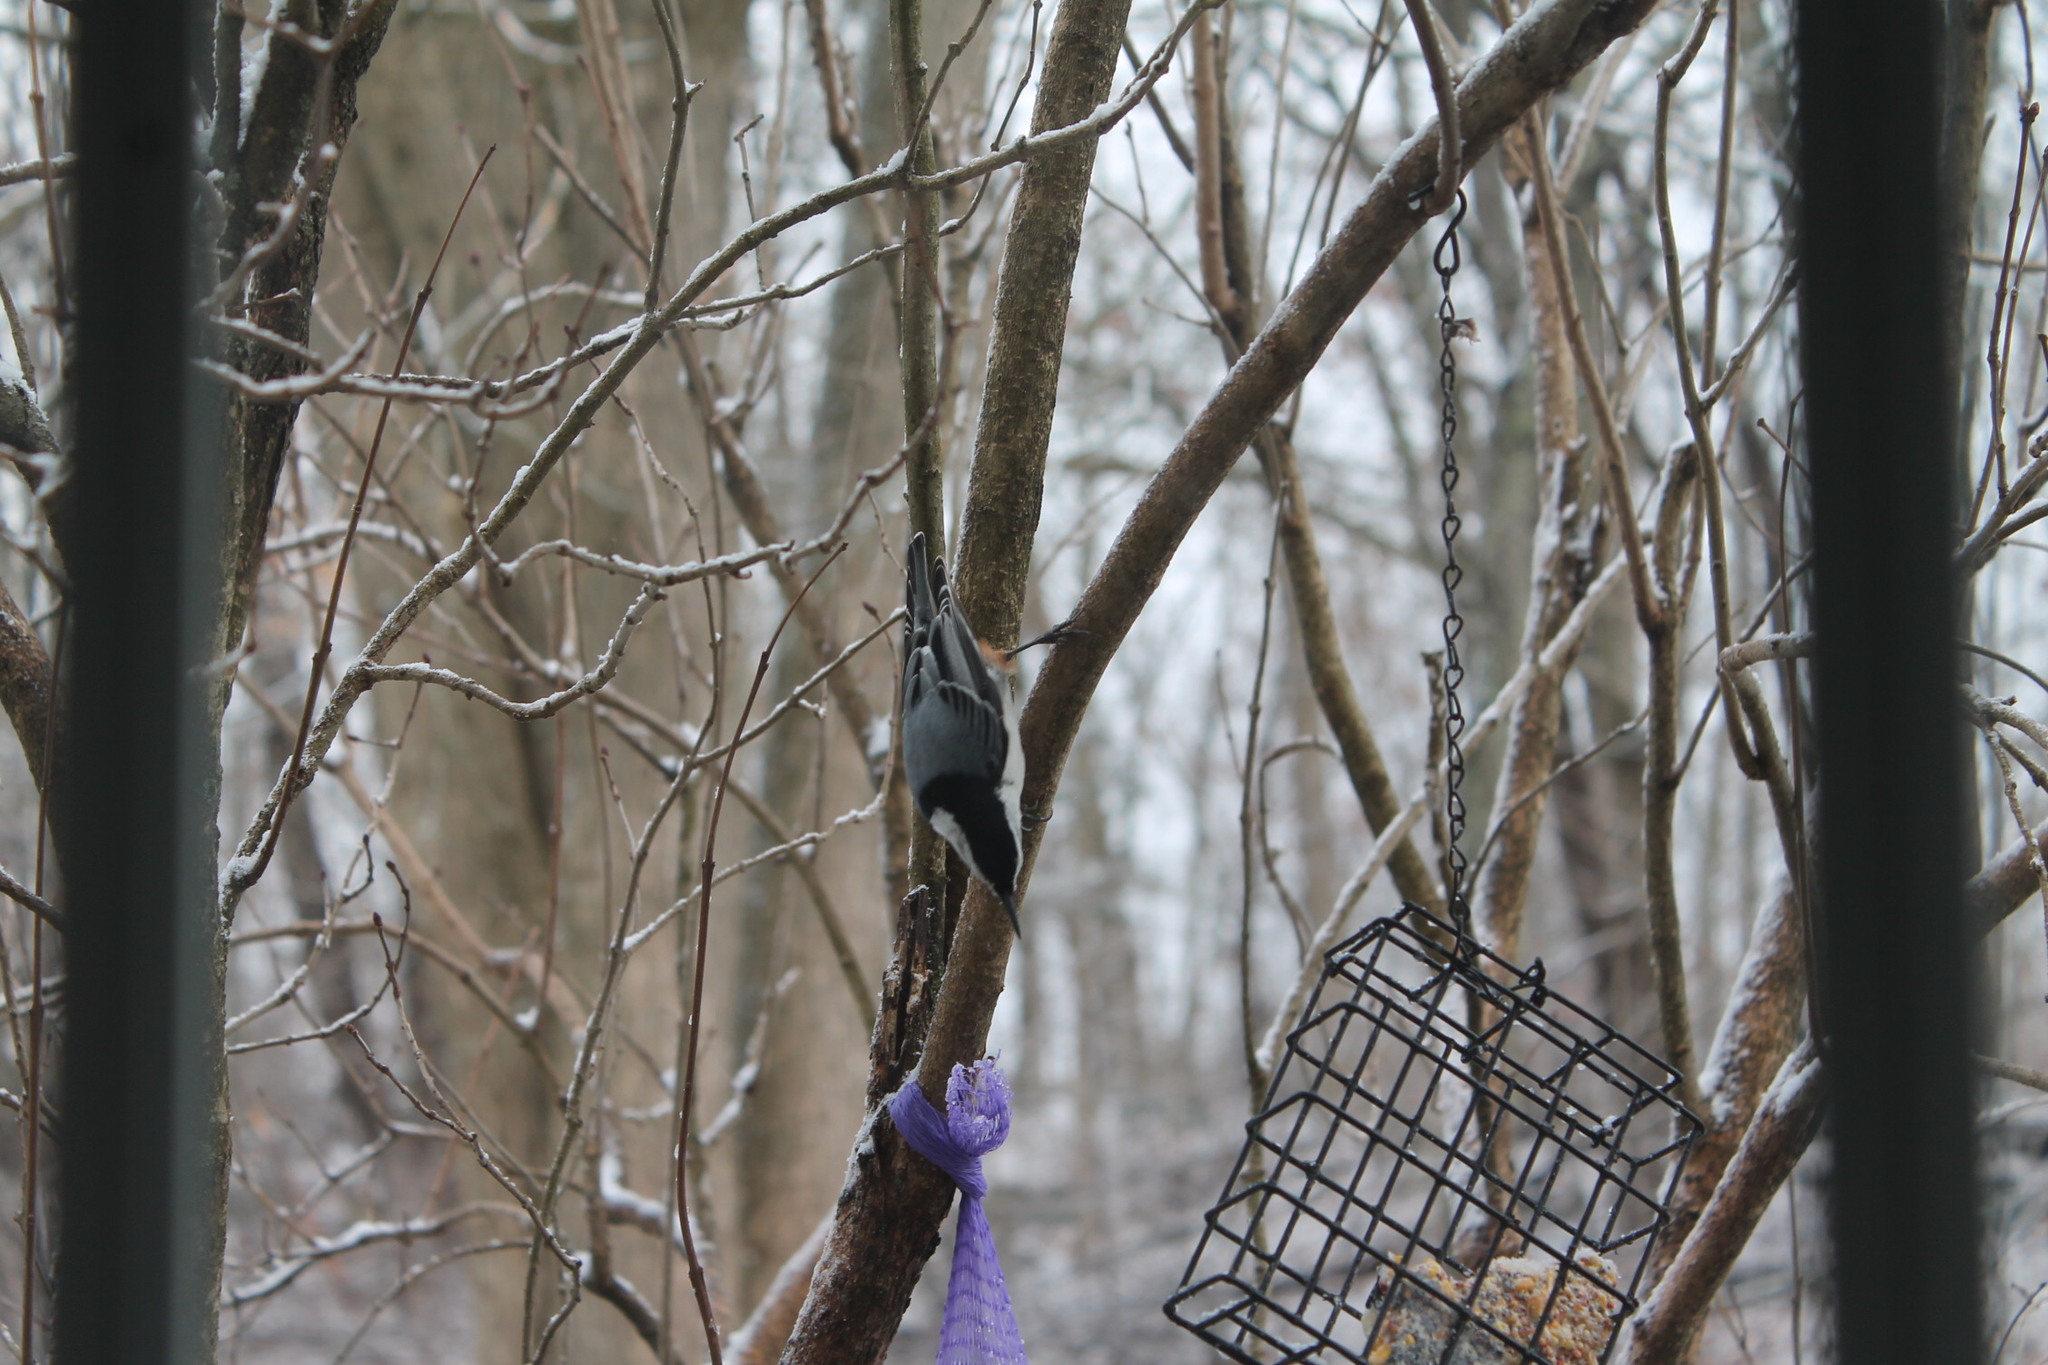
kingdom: Animalia
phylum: Chordata
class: Aves
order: Passeriformes
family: Sittidae
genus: Sitta
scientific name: Sitta carolinensis
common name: White-breasted nuthatch
